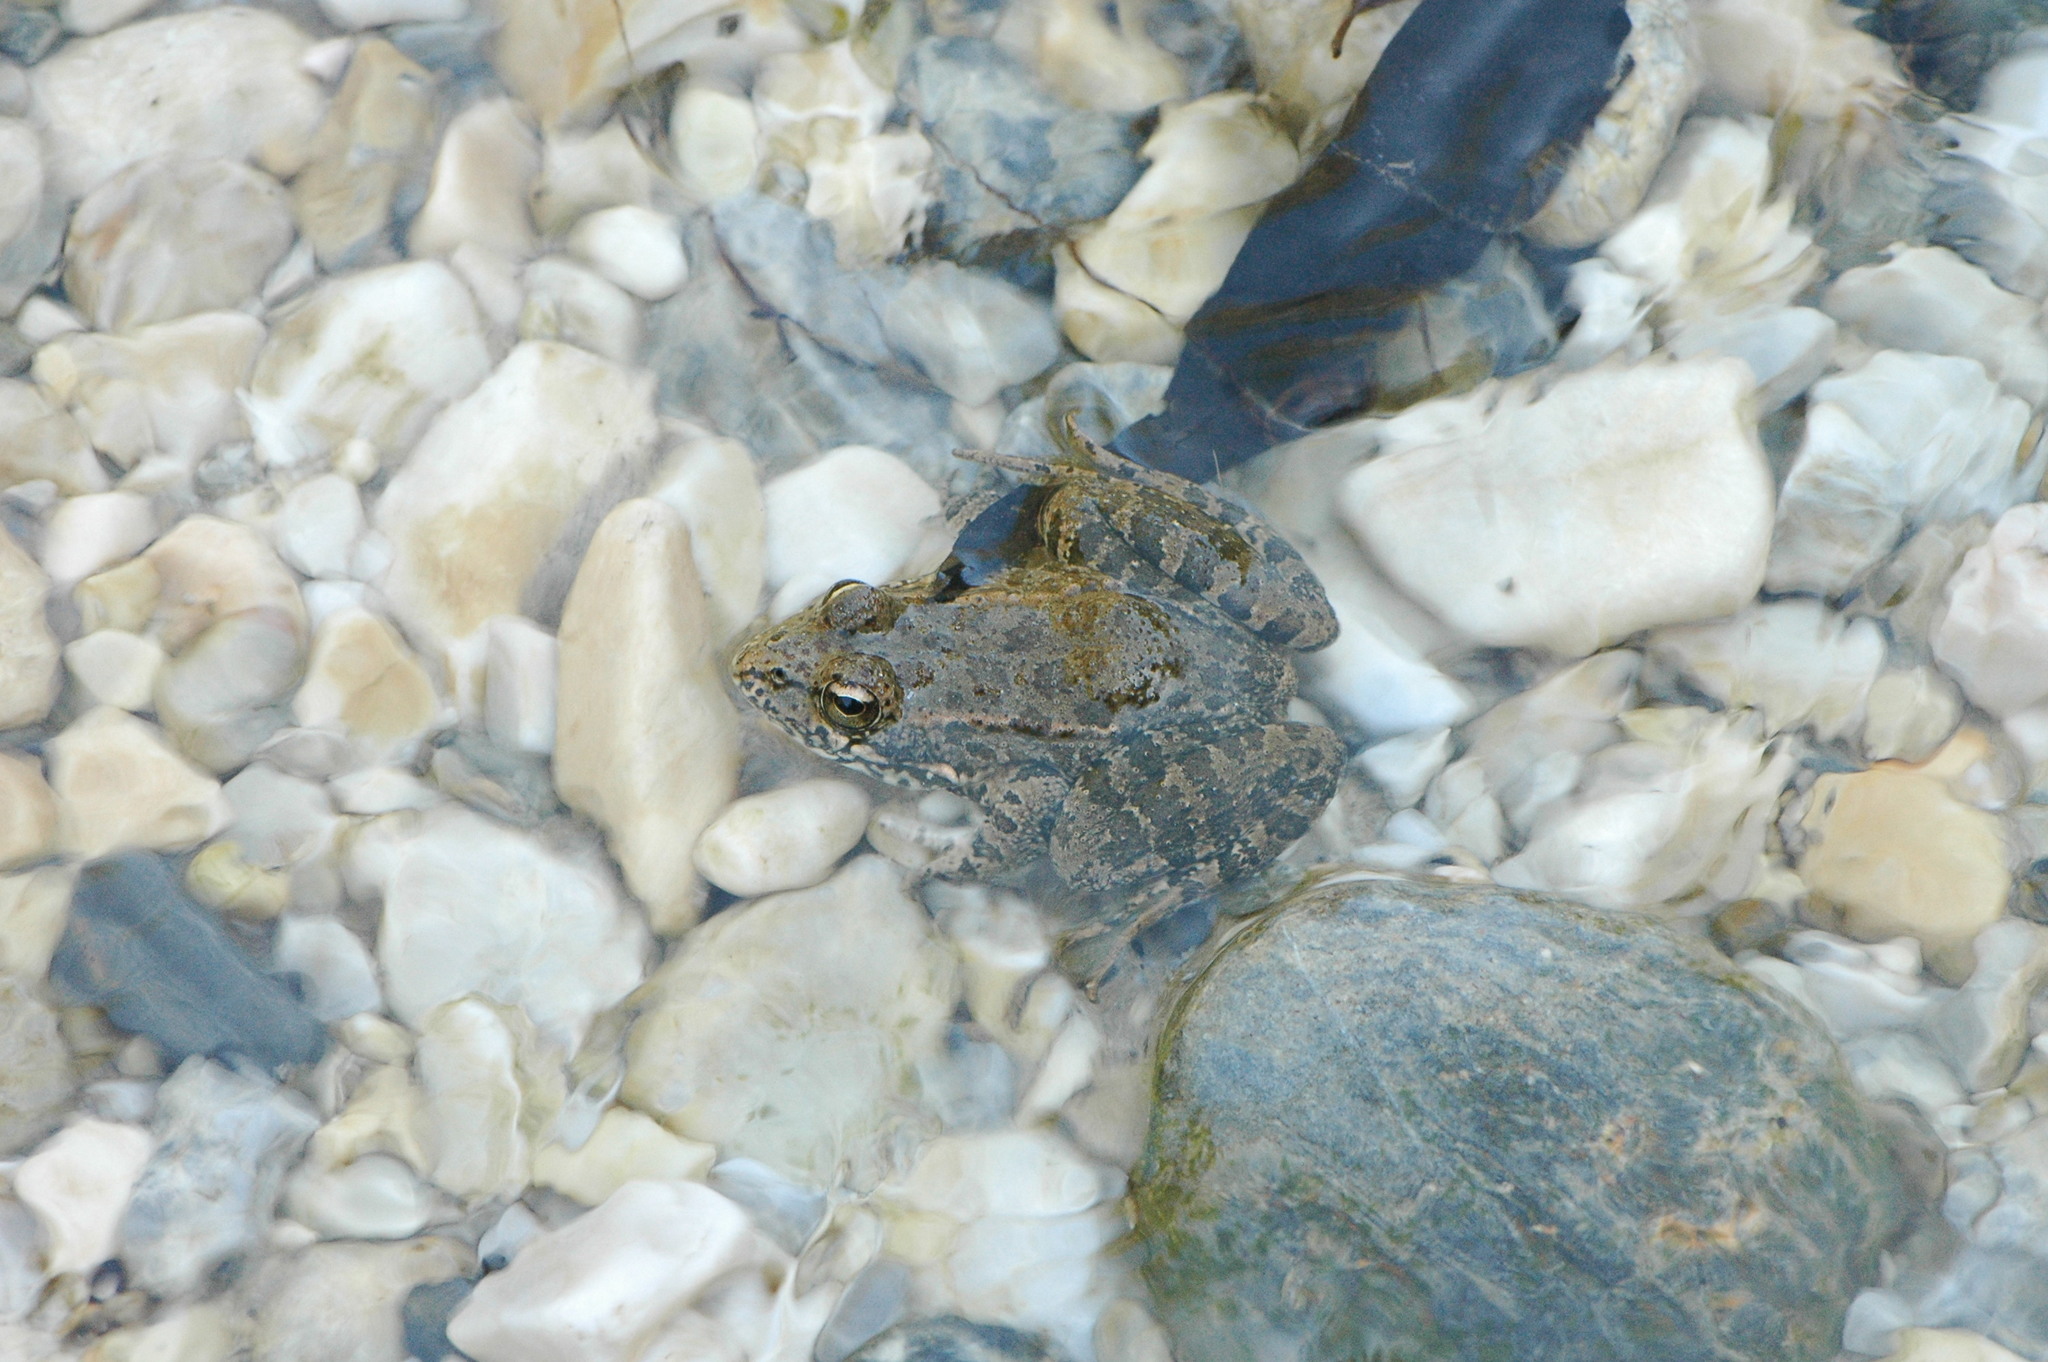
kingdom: Animalia
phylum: Chordata
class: Amphibia
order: Anura
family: Ranidae
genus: Pelophylax
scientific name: Pelophylax perezi
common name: Perez's frog
